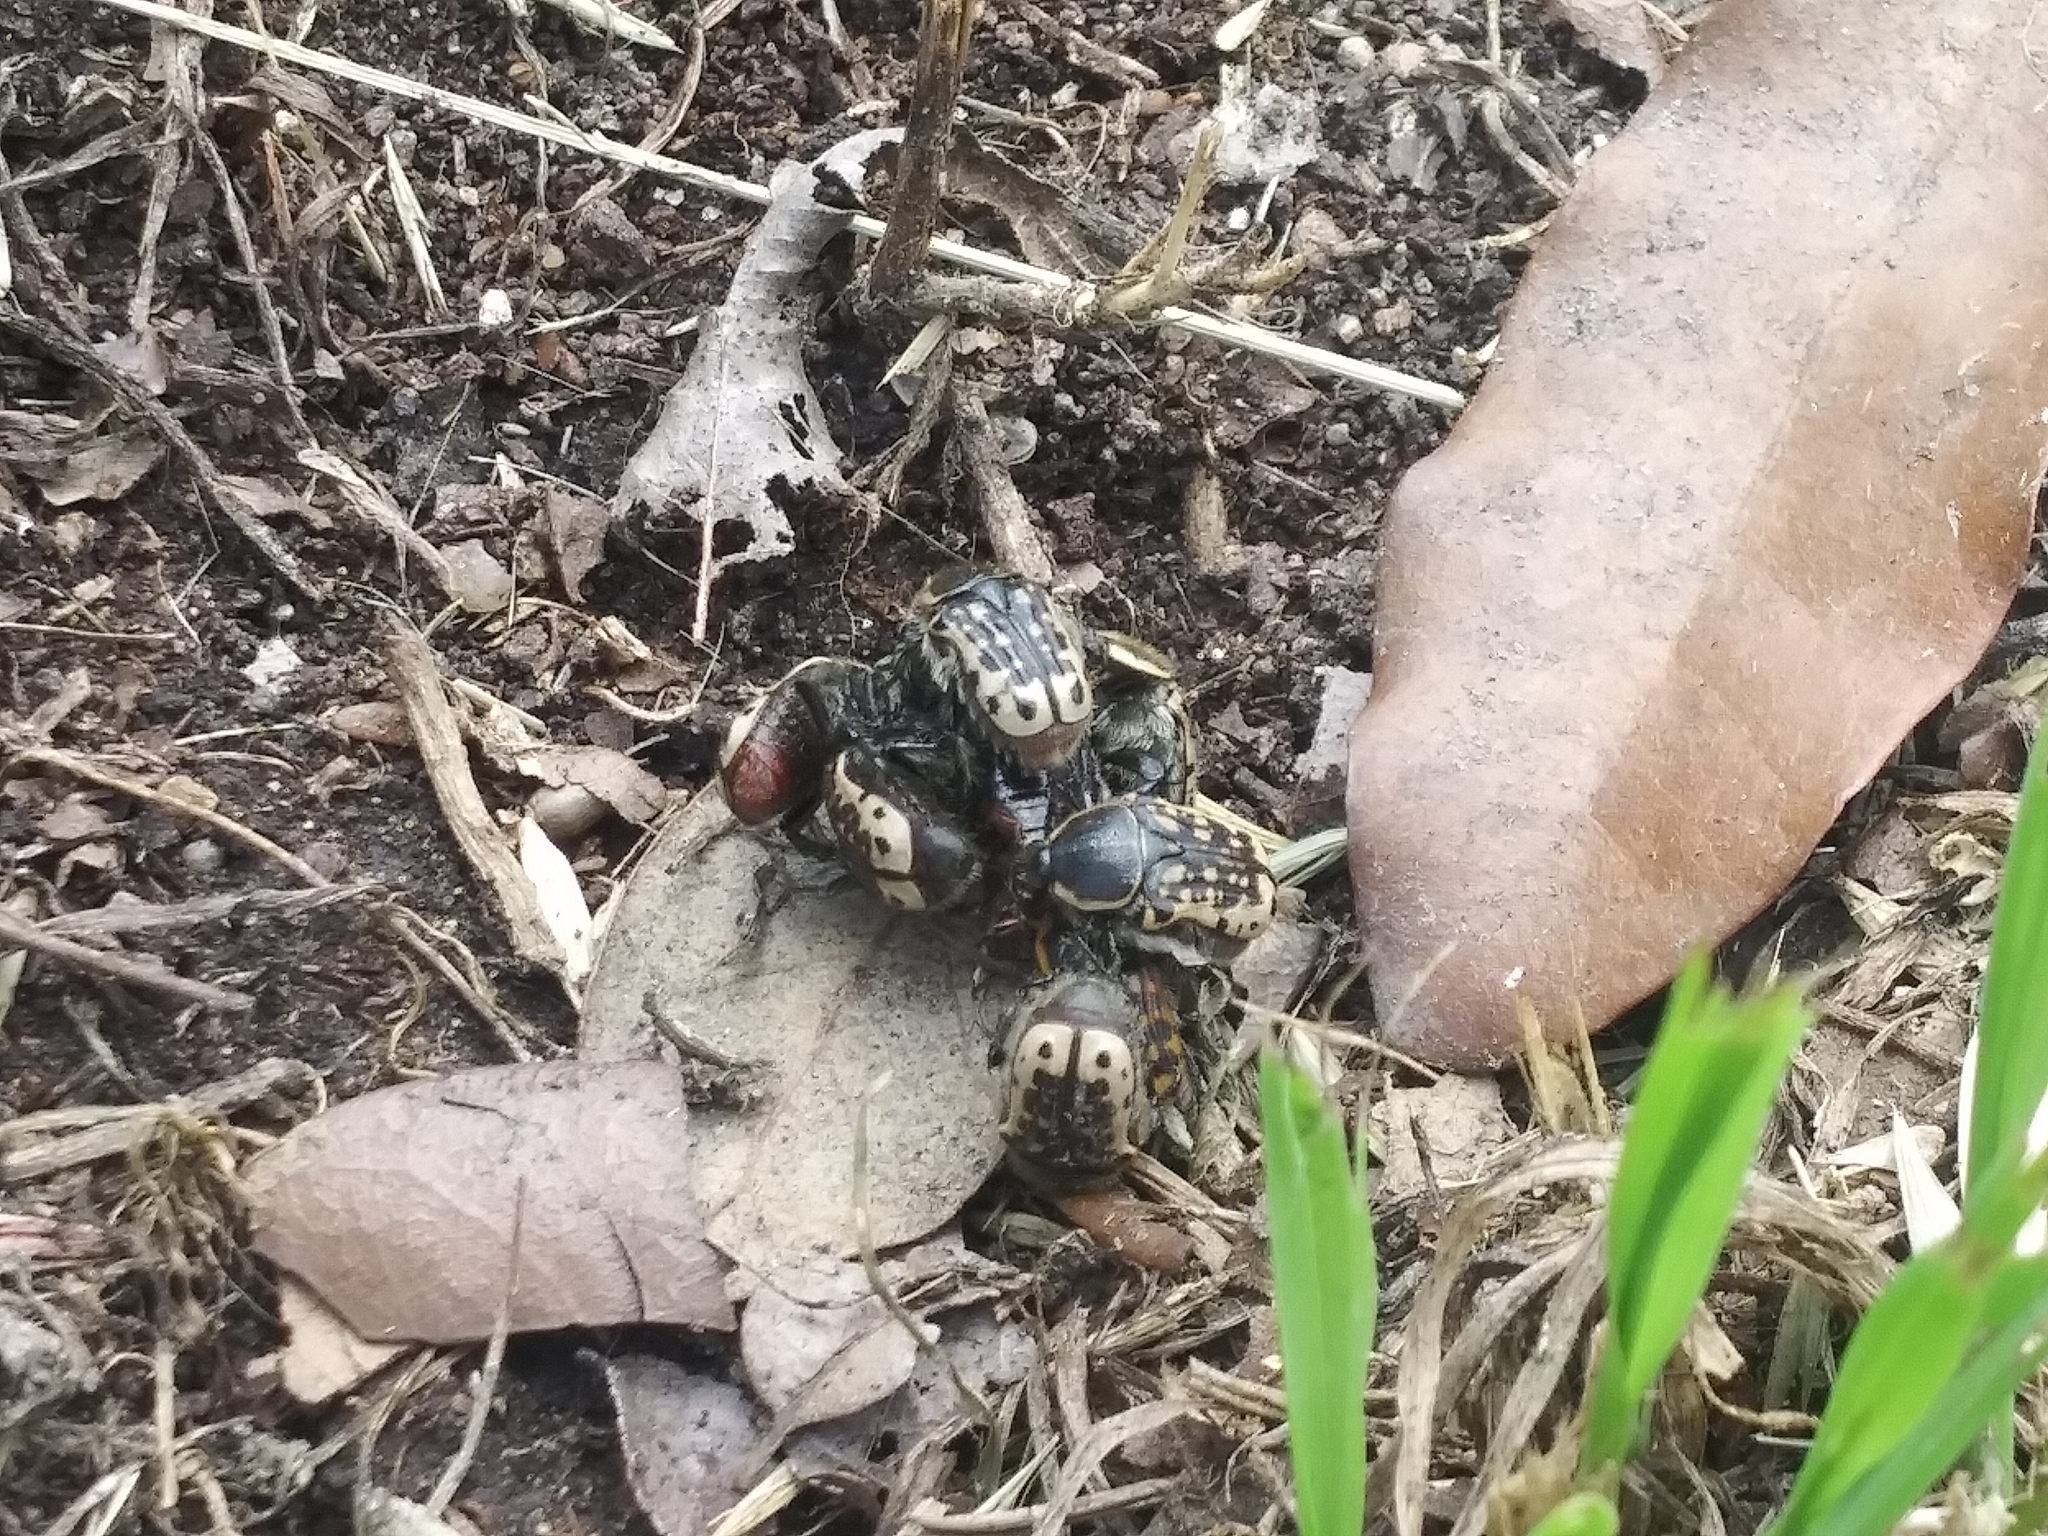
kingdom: Animalia
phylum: Arthropoda
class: Insecta
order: Coleoptera
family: Scarabaeidae
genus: Euphoria
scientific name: Euphoria kernii
